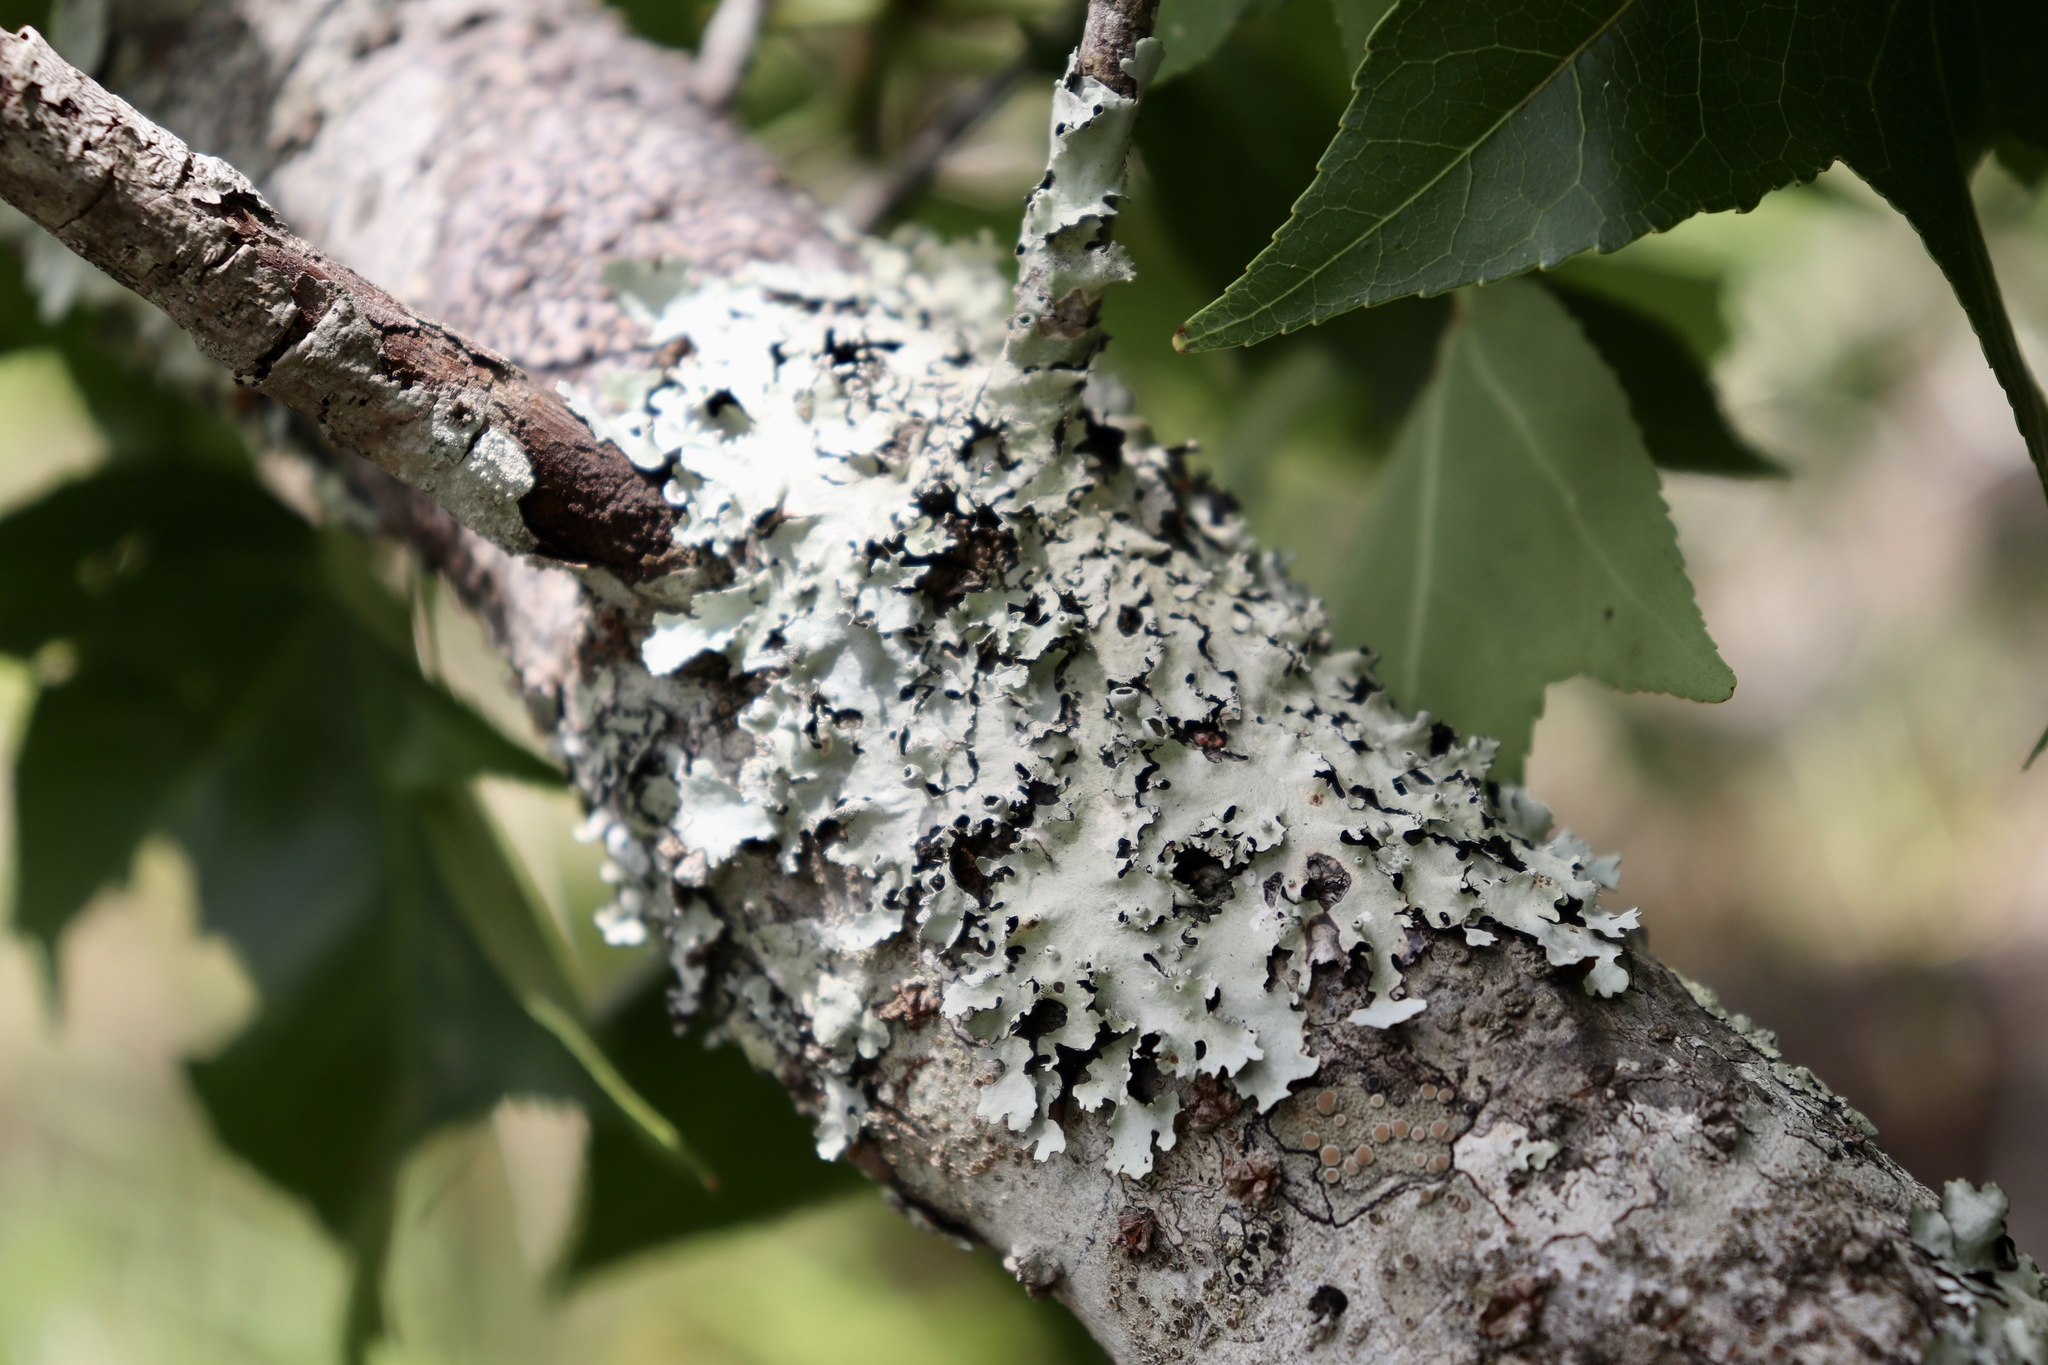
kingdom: Fungi
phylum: Ascomycota
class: Lecanoromycetes
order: Lecanorales
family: Parmeliaceae
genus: Parmotrema
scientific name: Parmotrema submarginale
